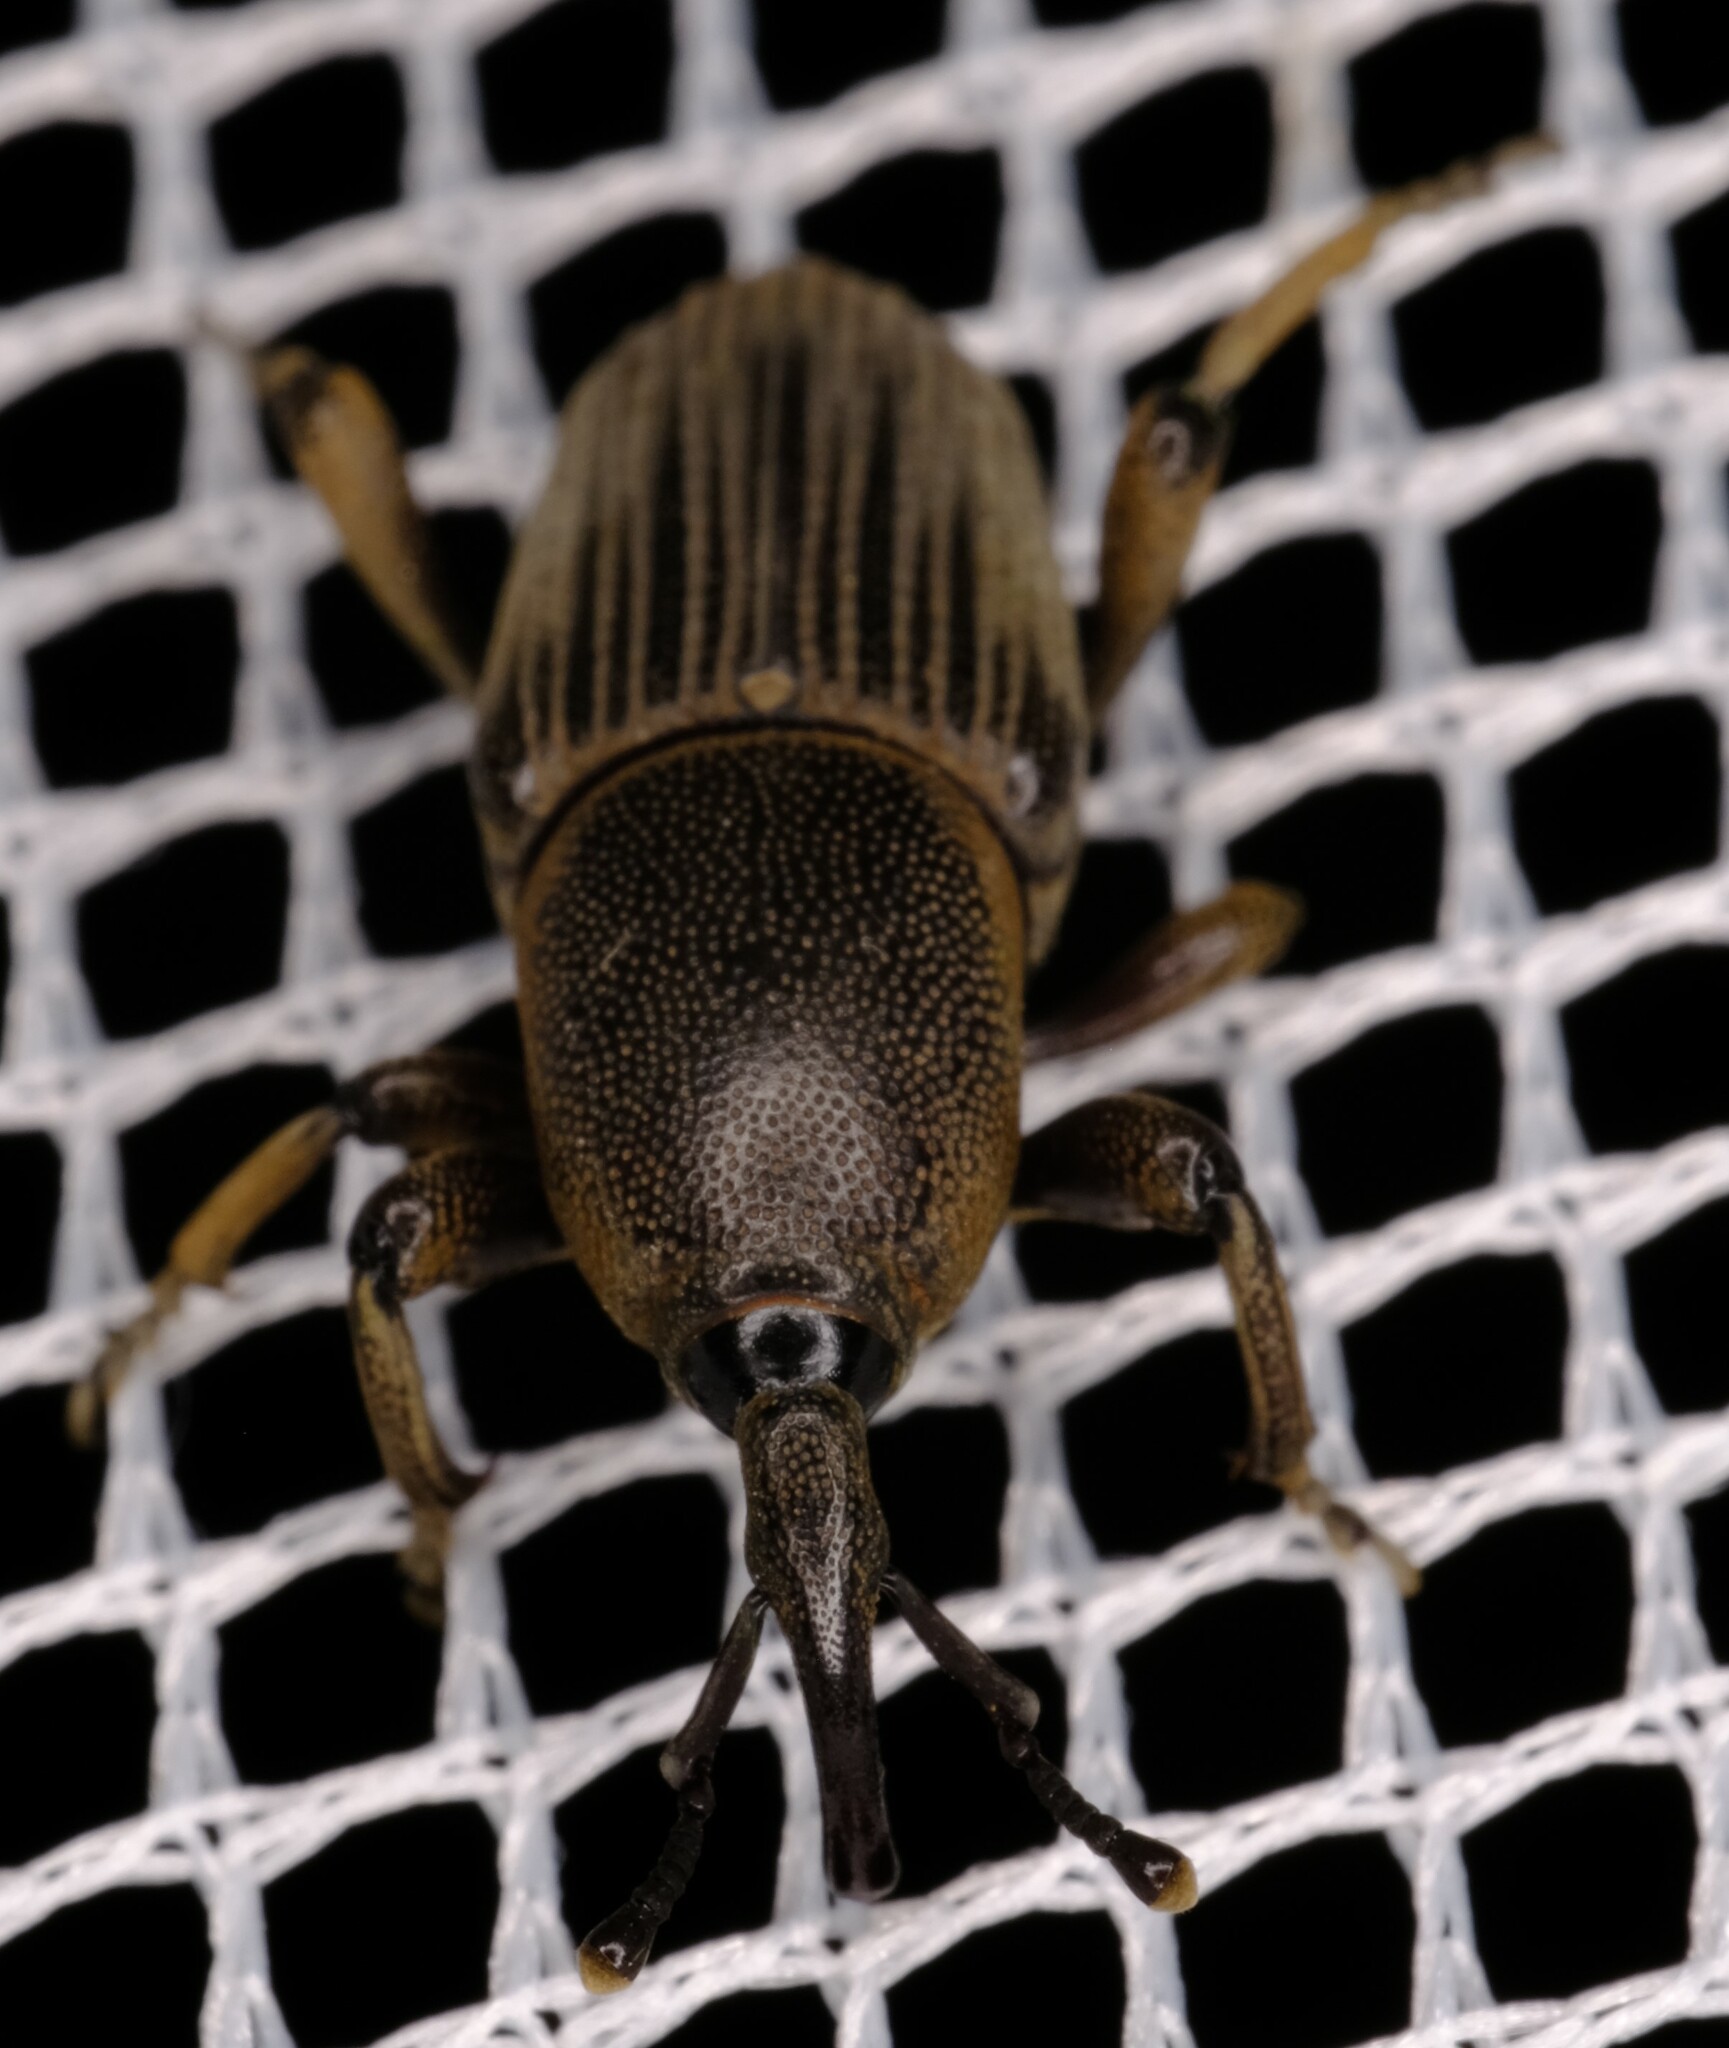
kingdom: Animalia
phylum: Arthropoda
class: Insecta
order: Coleoptera
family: Dryophthoridae
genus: Cosmopolites
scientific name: Cosmopolites sordidus
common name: Palm weevil
